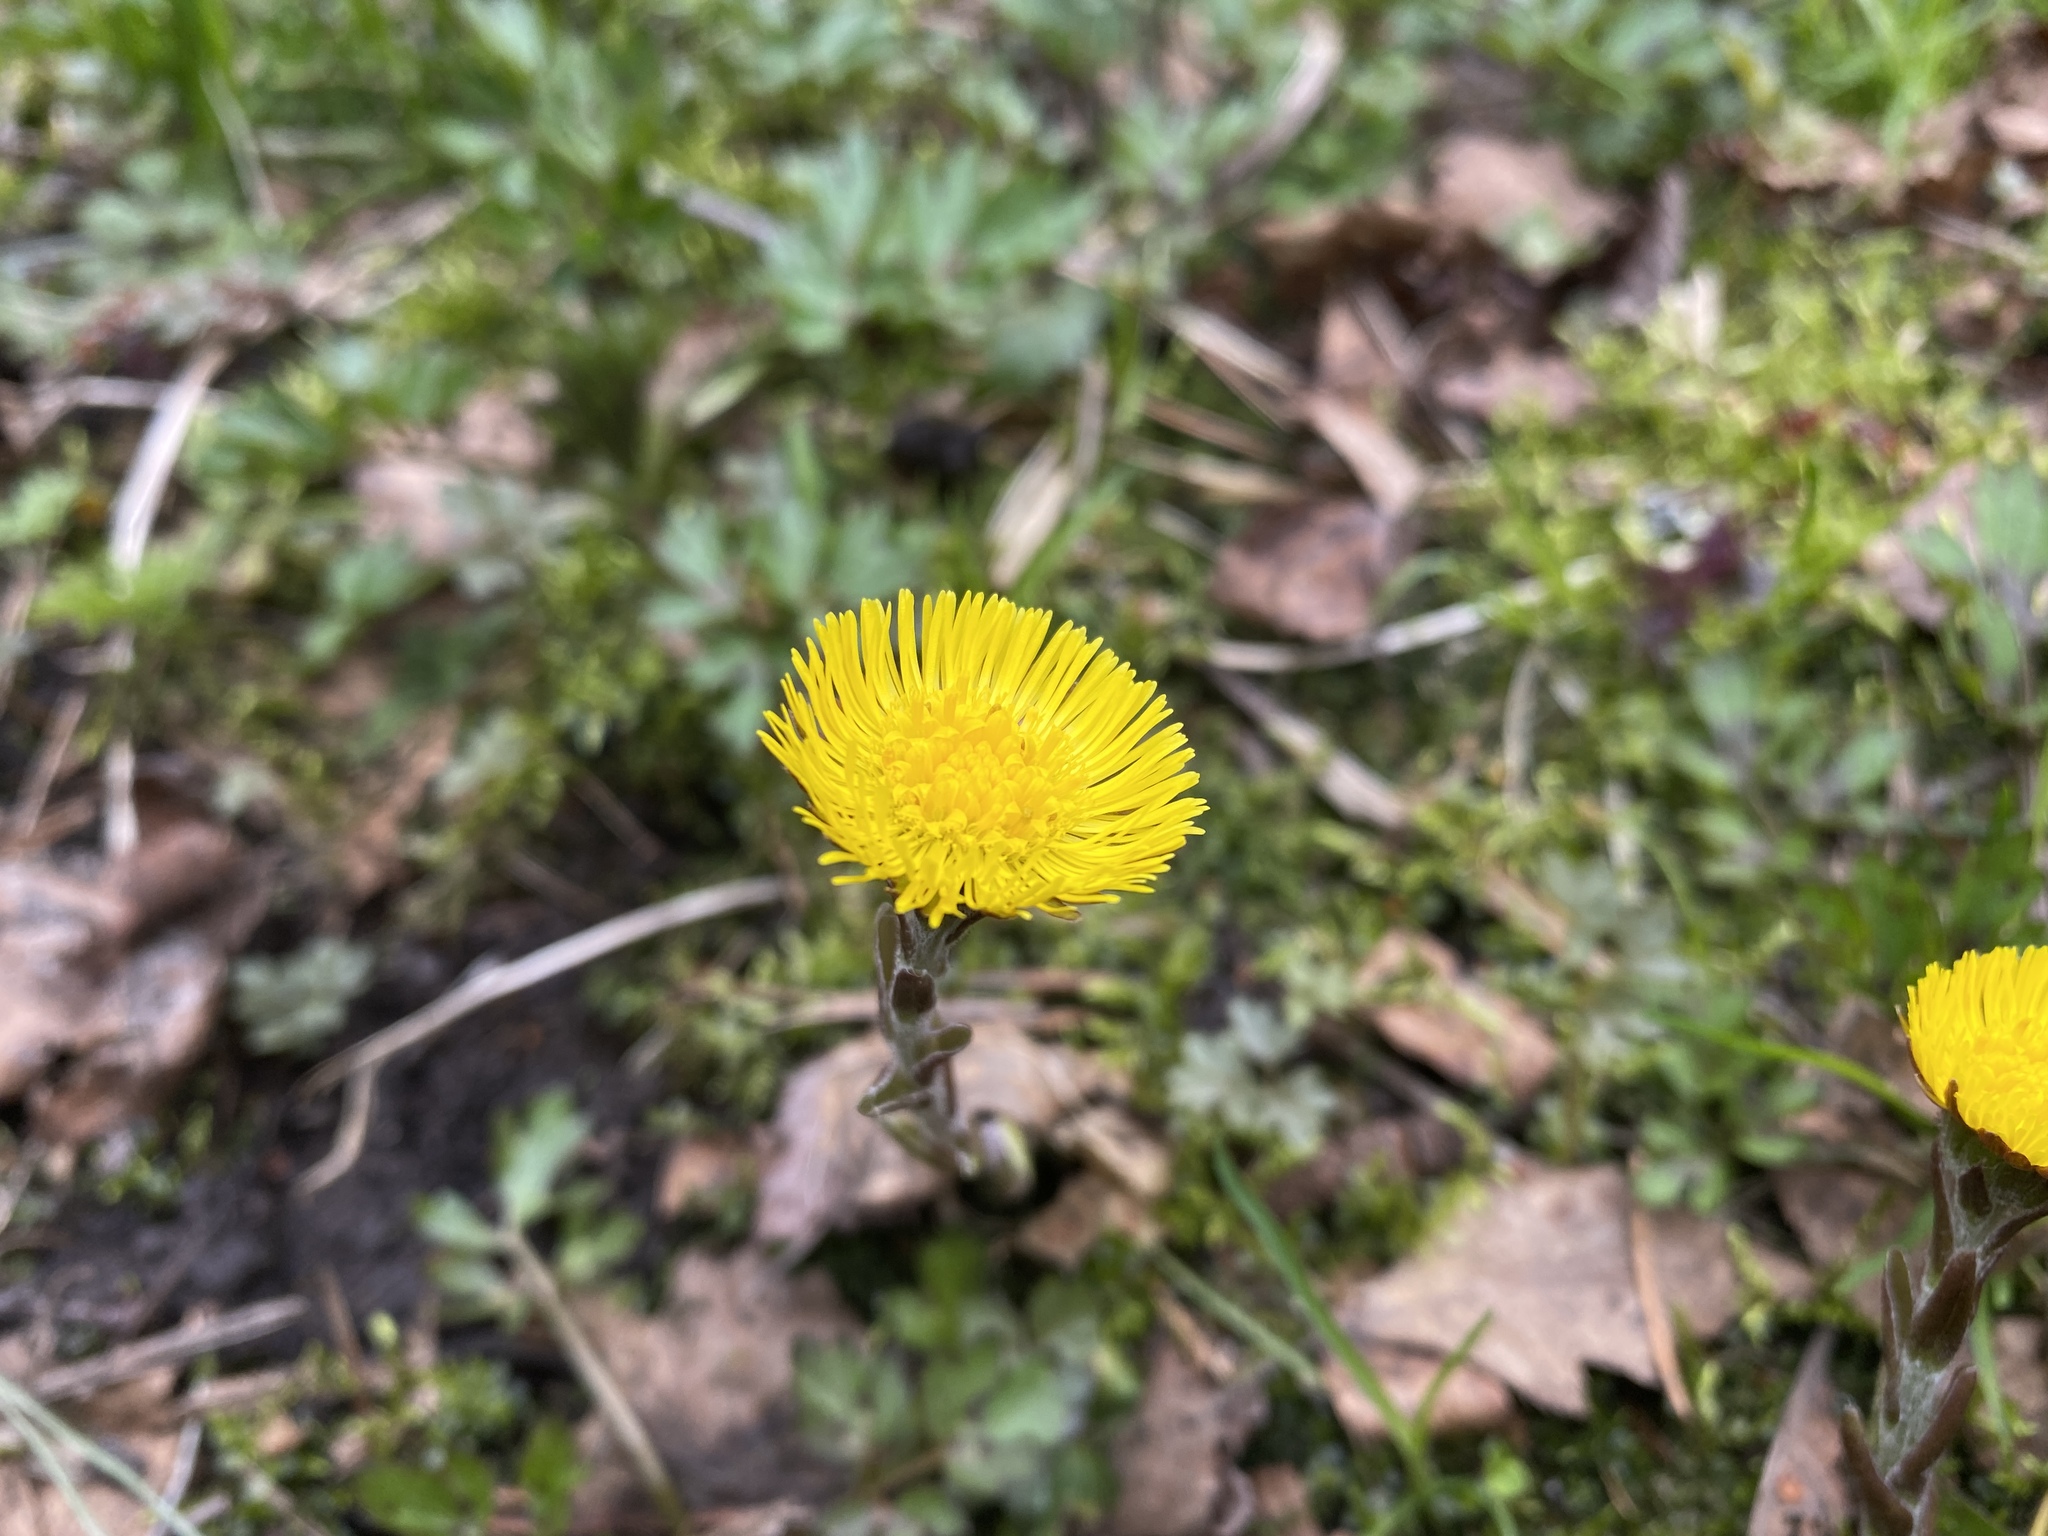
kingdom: Plantae
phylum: Tracheophyta
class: Magnoliopsida
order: Asterales
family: Asteraceae
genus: Tussilago
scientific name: Tussilago farfara
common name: Coltsfoot
